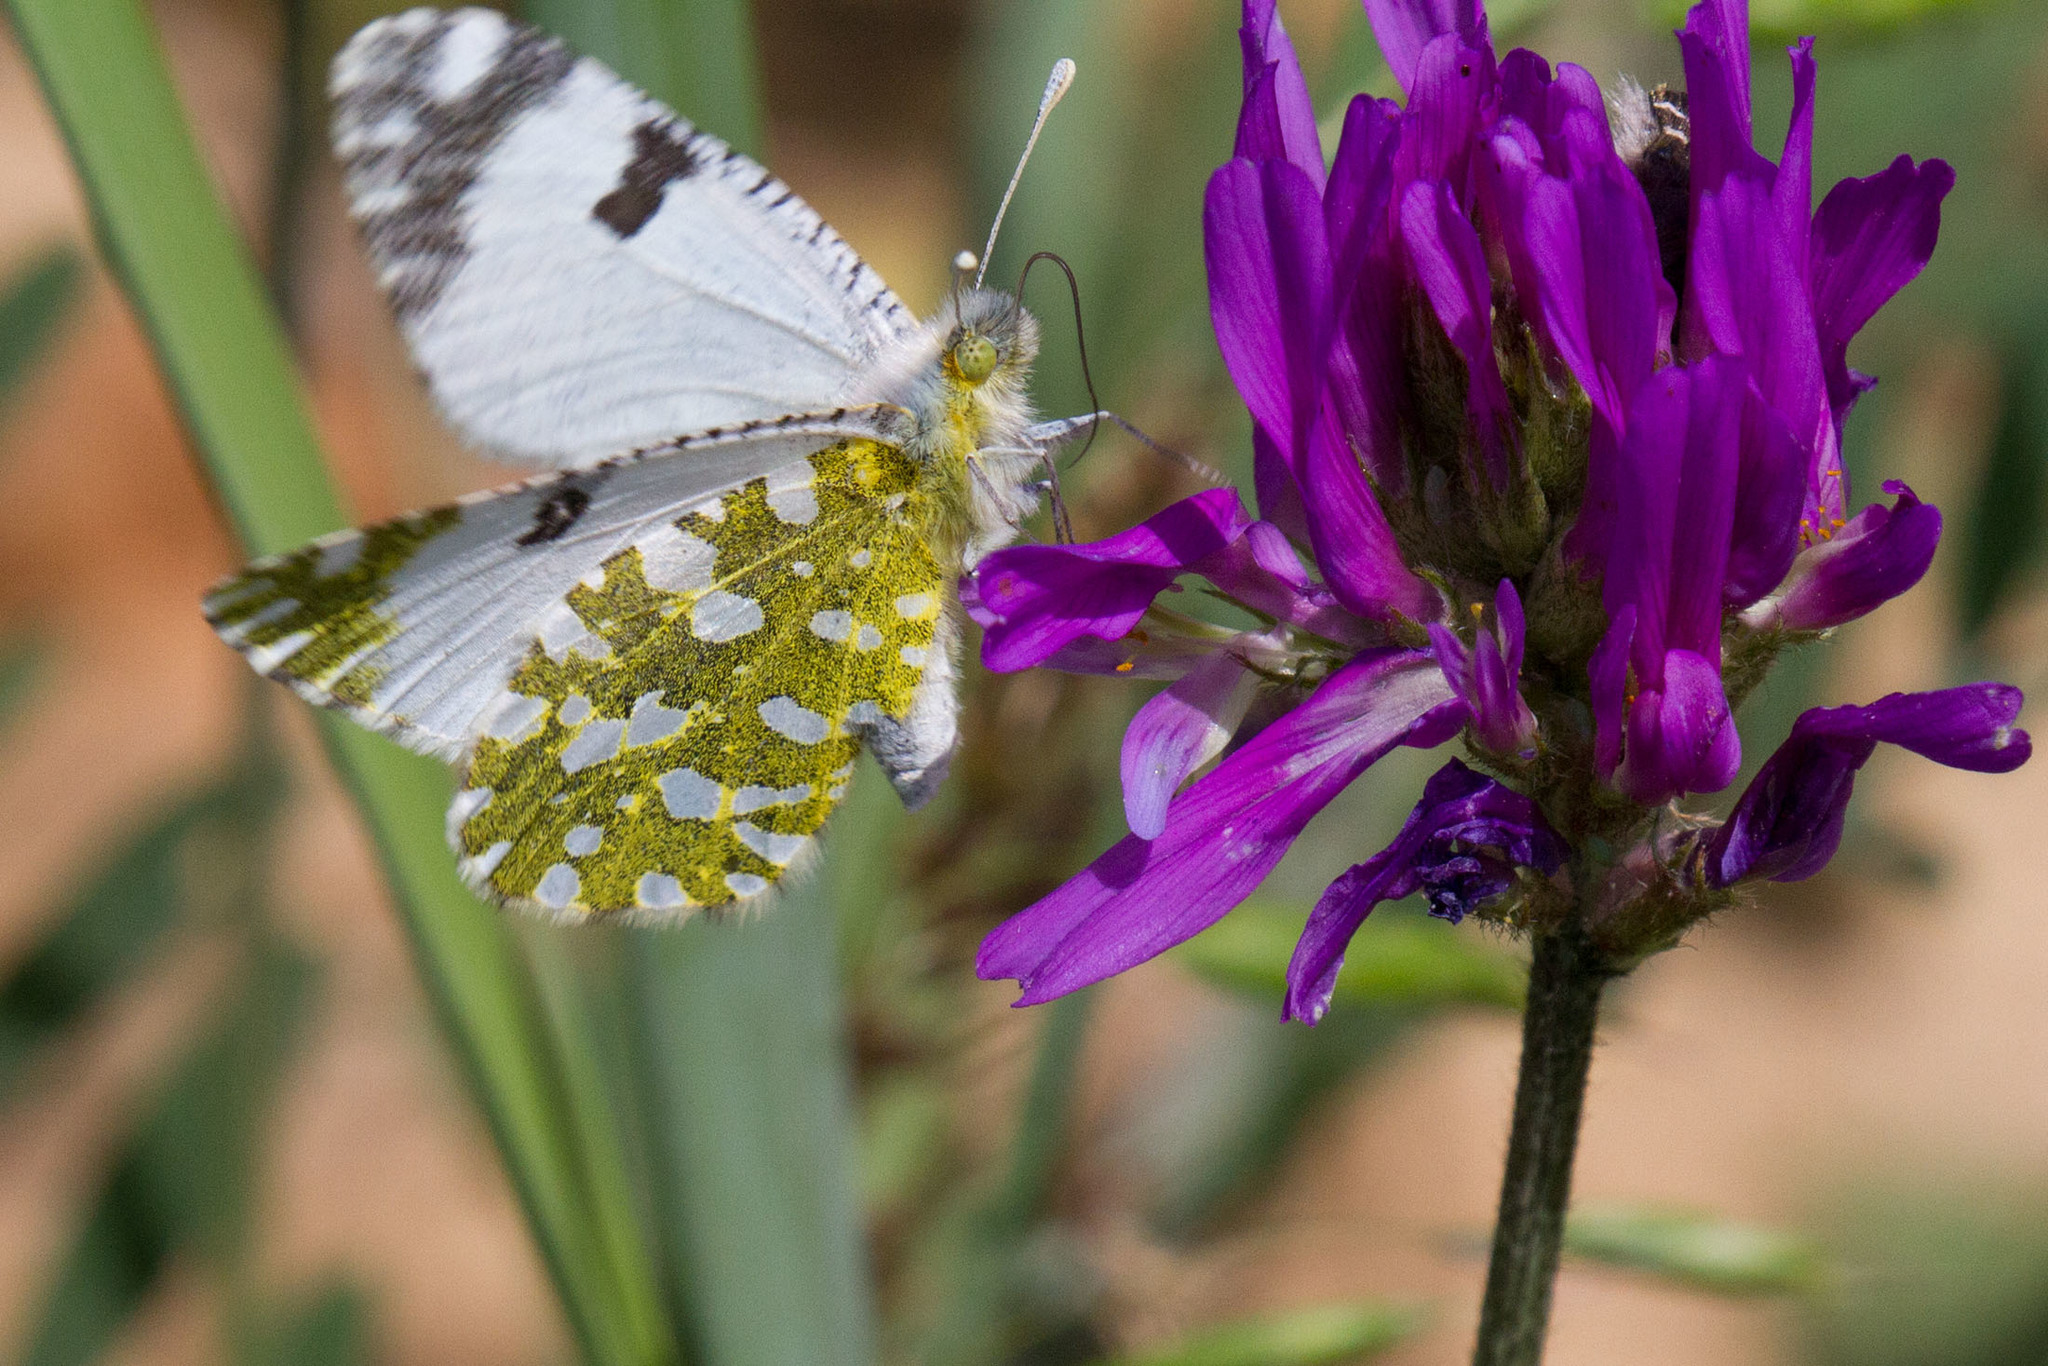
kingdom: Animalia
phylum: Arthropoda
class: Insecta
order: Lepidoptera
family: Pieridae
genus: Euchloe
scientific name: Euchloe ausonia
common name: Eastern dappled white
